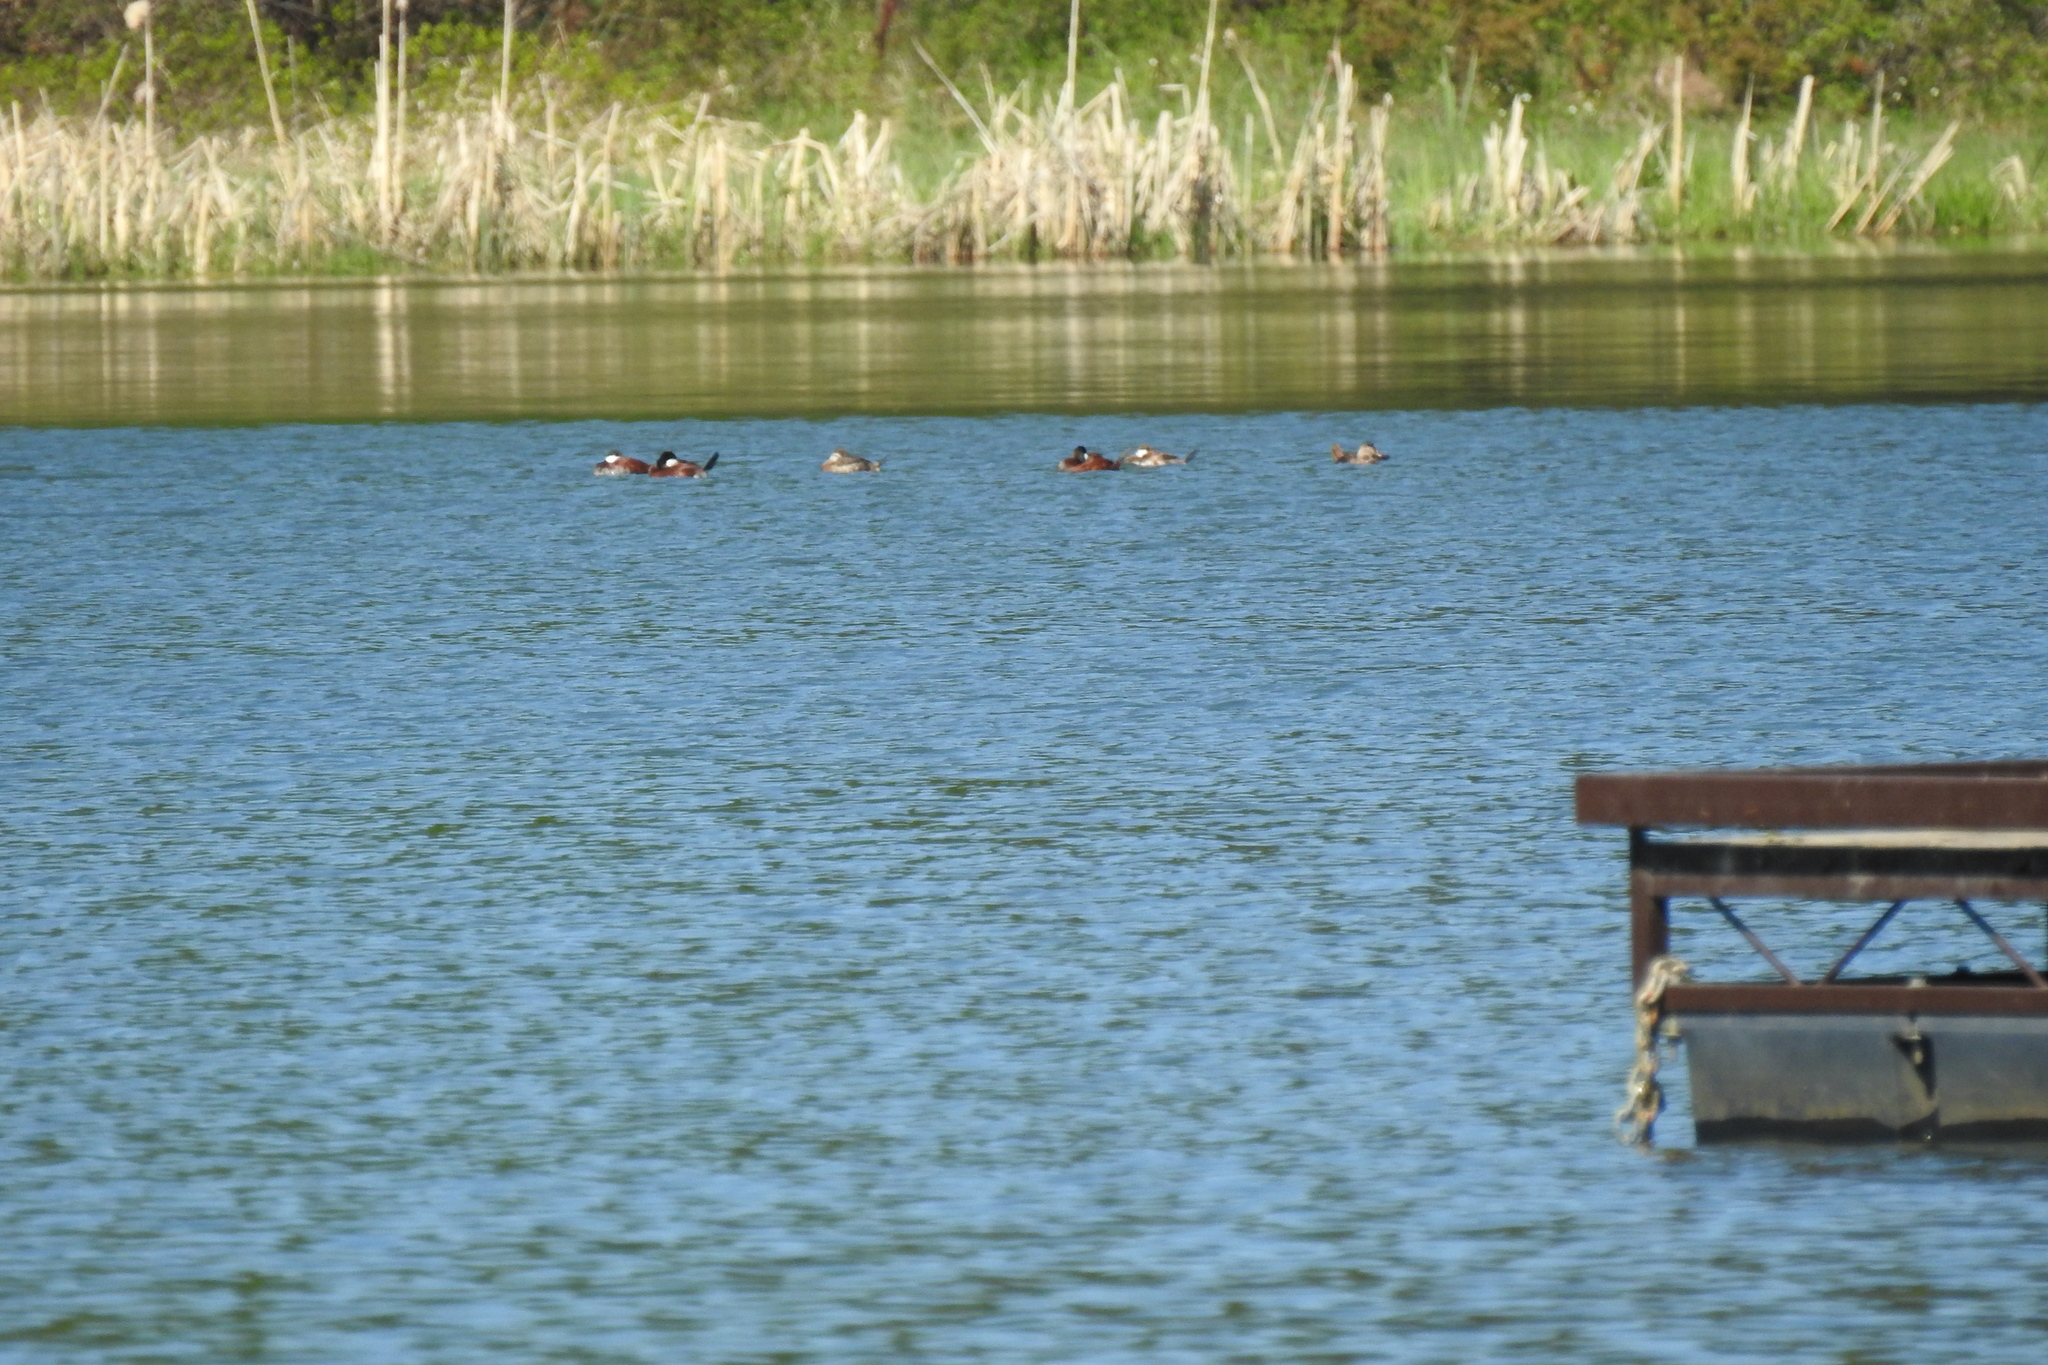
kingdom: Animalia
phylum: Chordata
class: Aves
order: Anseriformes
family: Anatidae
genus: Oxyura
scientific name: Oxyura jamaicensis
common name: Ruddy duck
